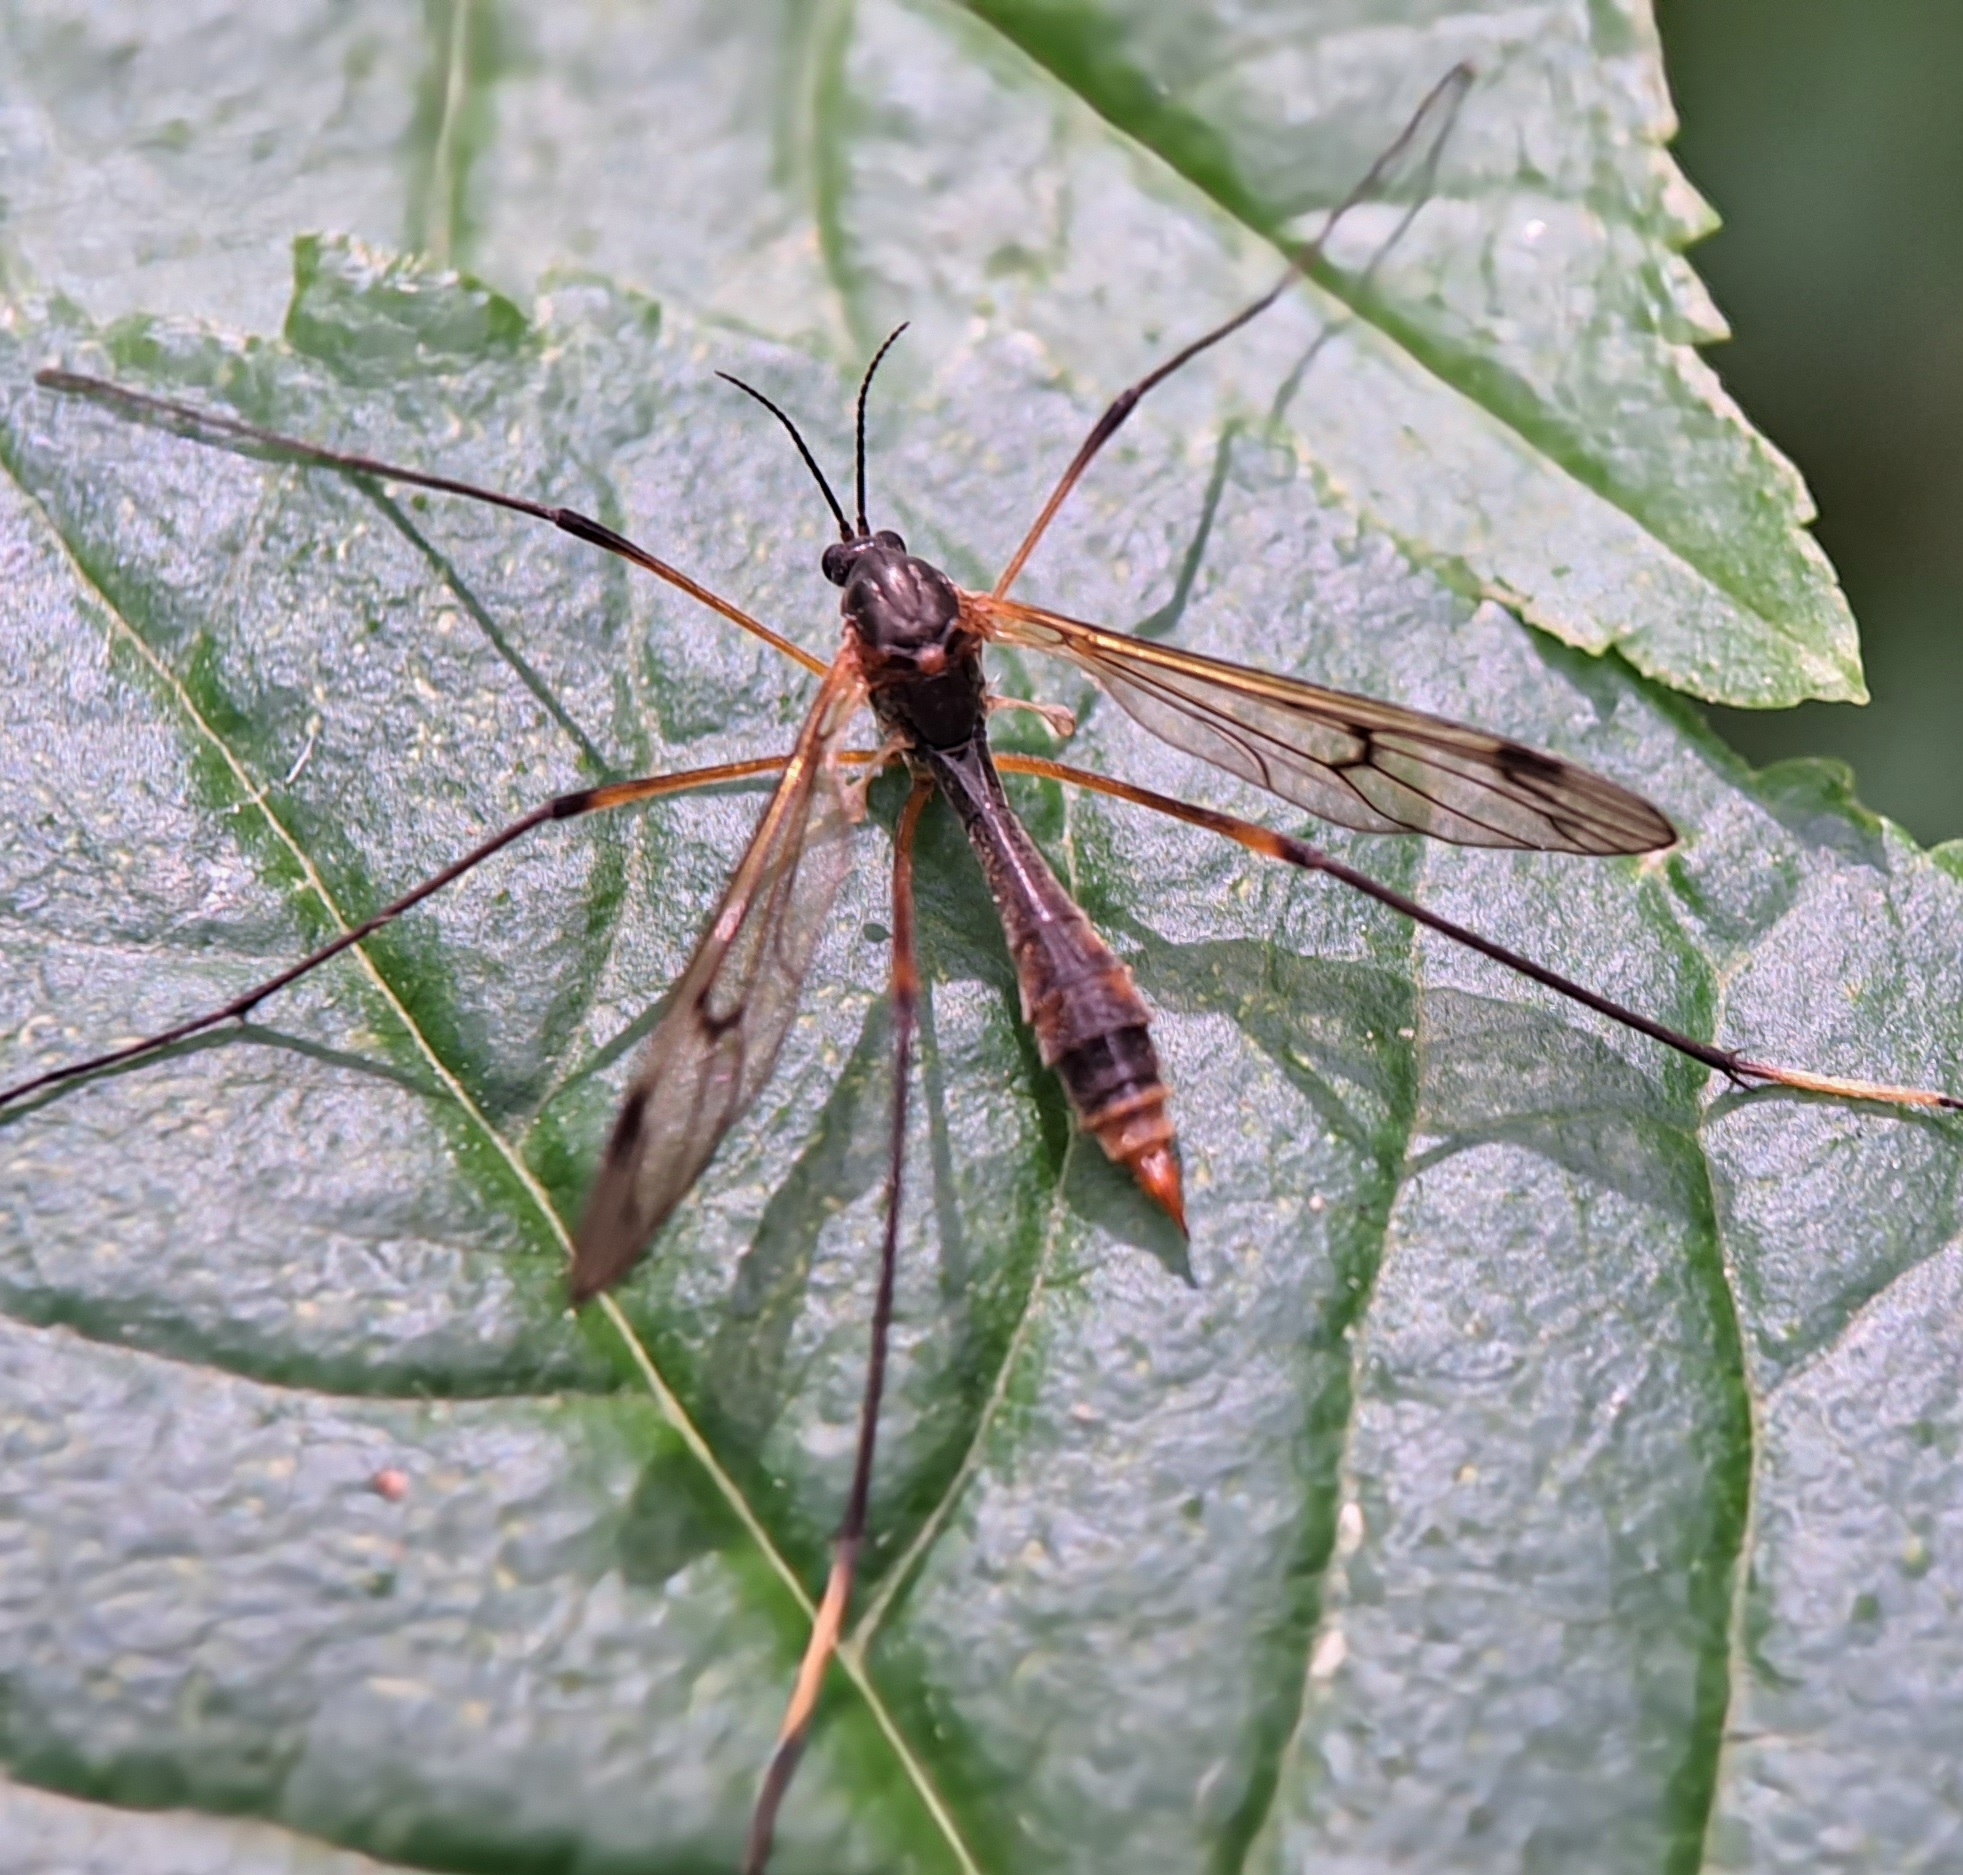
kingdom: Animalia
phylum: Arthropoda
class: Insecta
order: Diptera
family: Ptychopteridae
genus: Ptychoptera
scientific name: Ptychoptera albimanus
